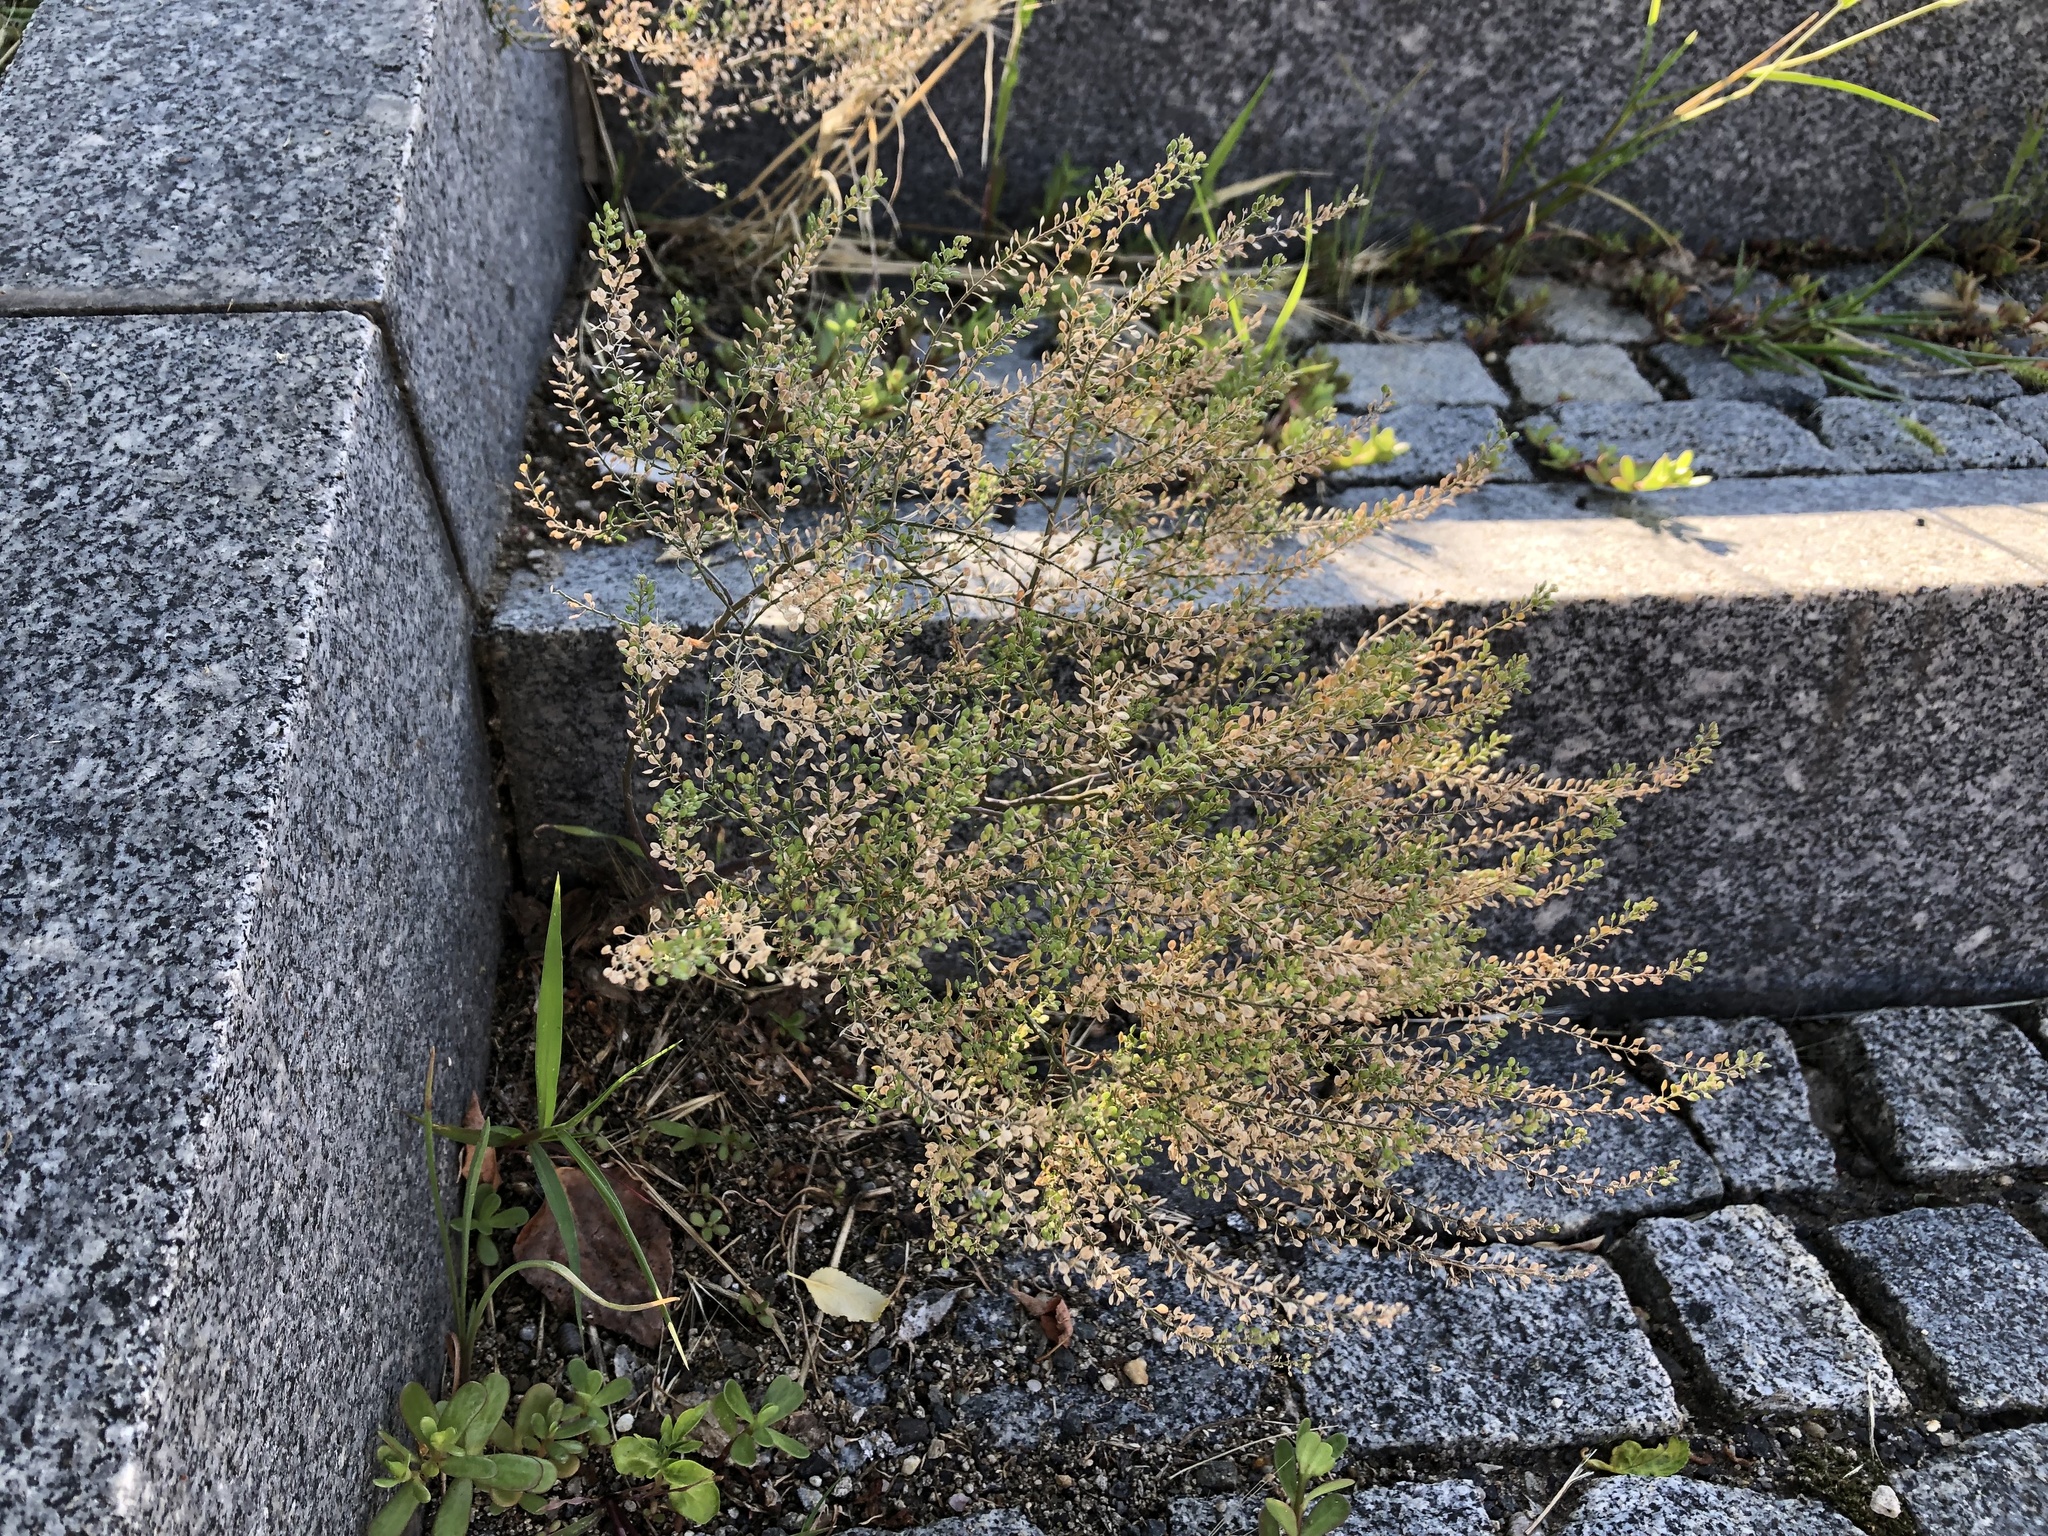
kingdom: Plantae
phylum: Tracheophyta
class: Magnoliopsida
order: Brassicales
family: Brassicaceae
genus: Lepidium
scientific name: Lepidium ruderale
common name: Narrow-leaved pepperwort
